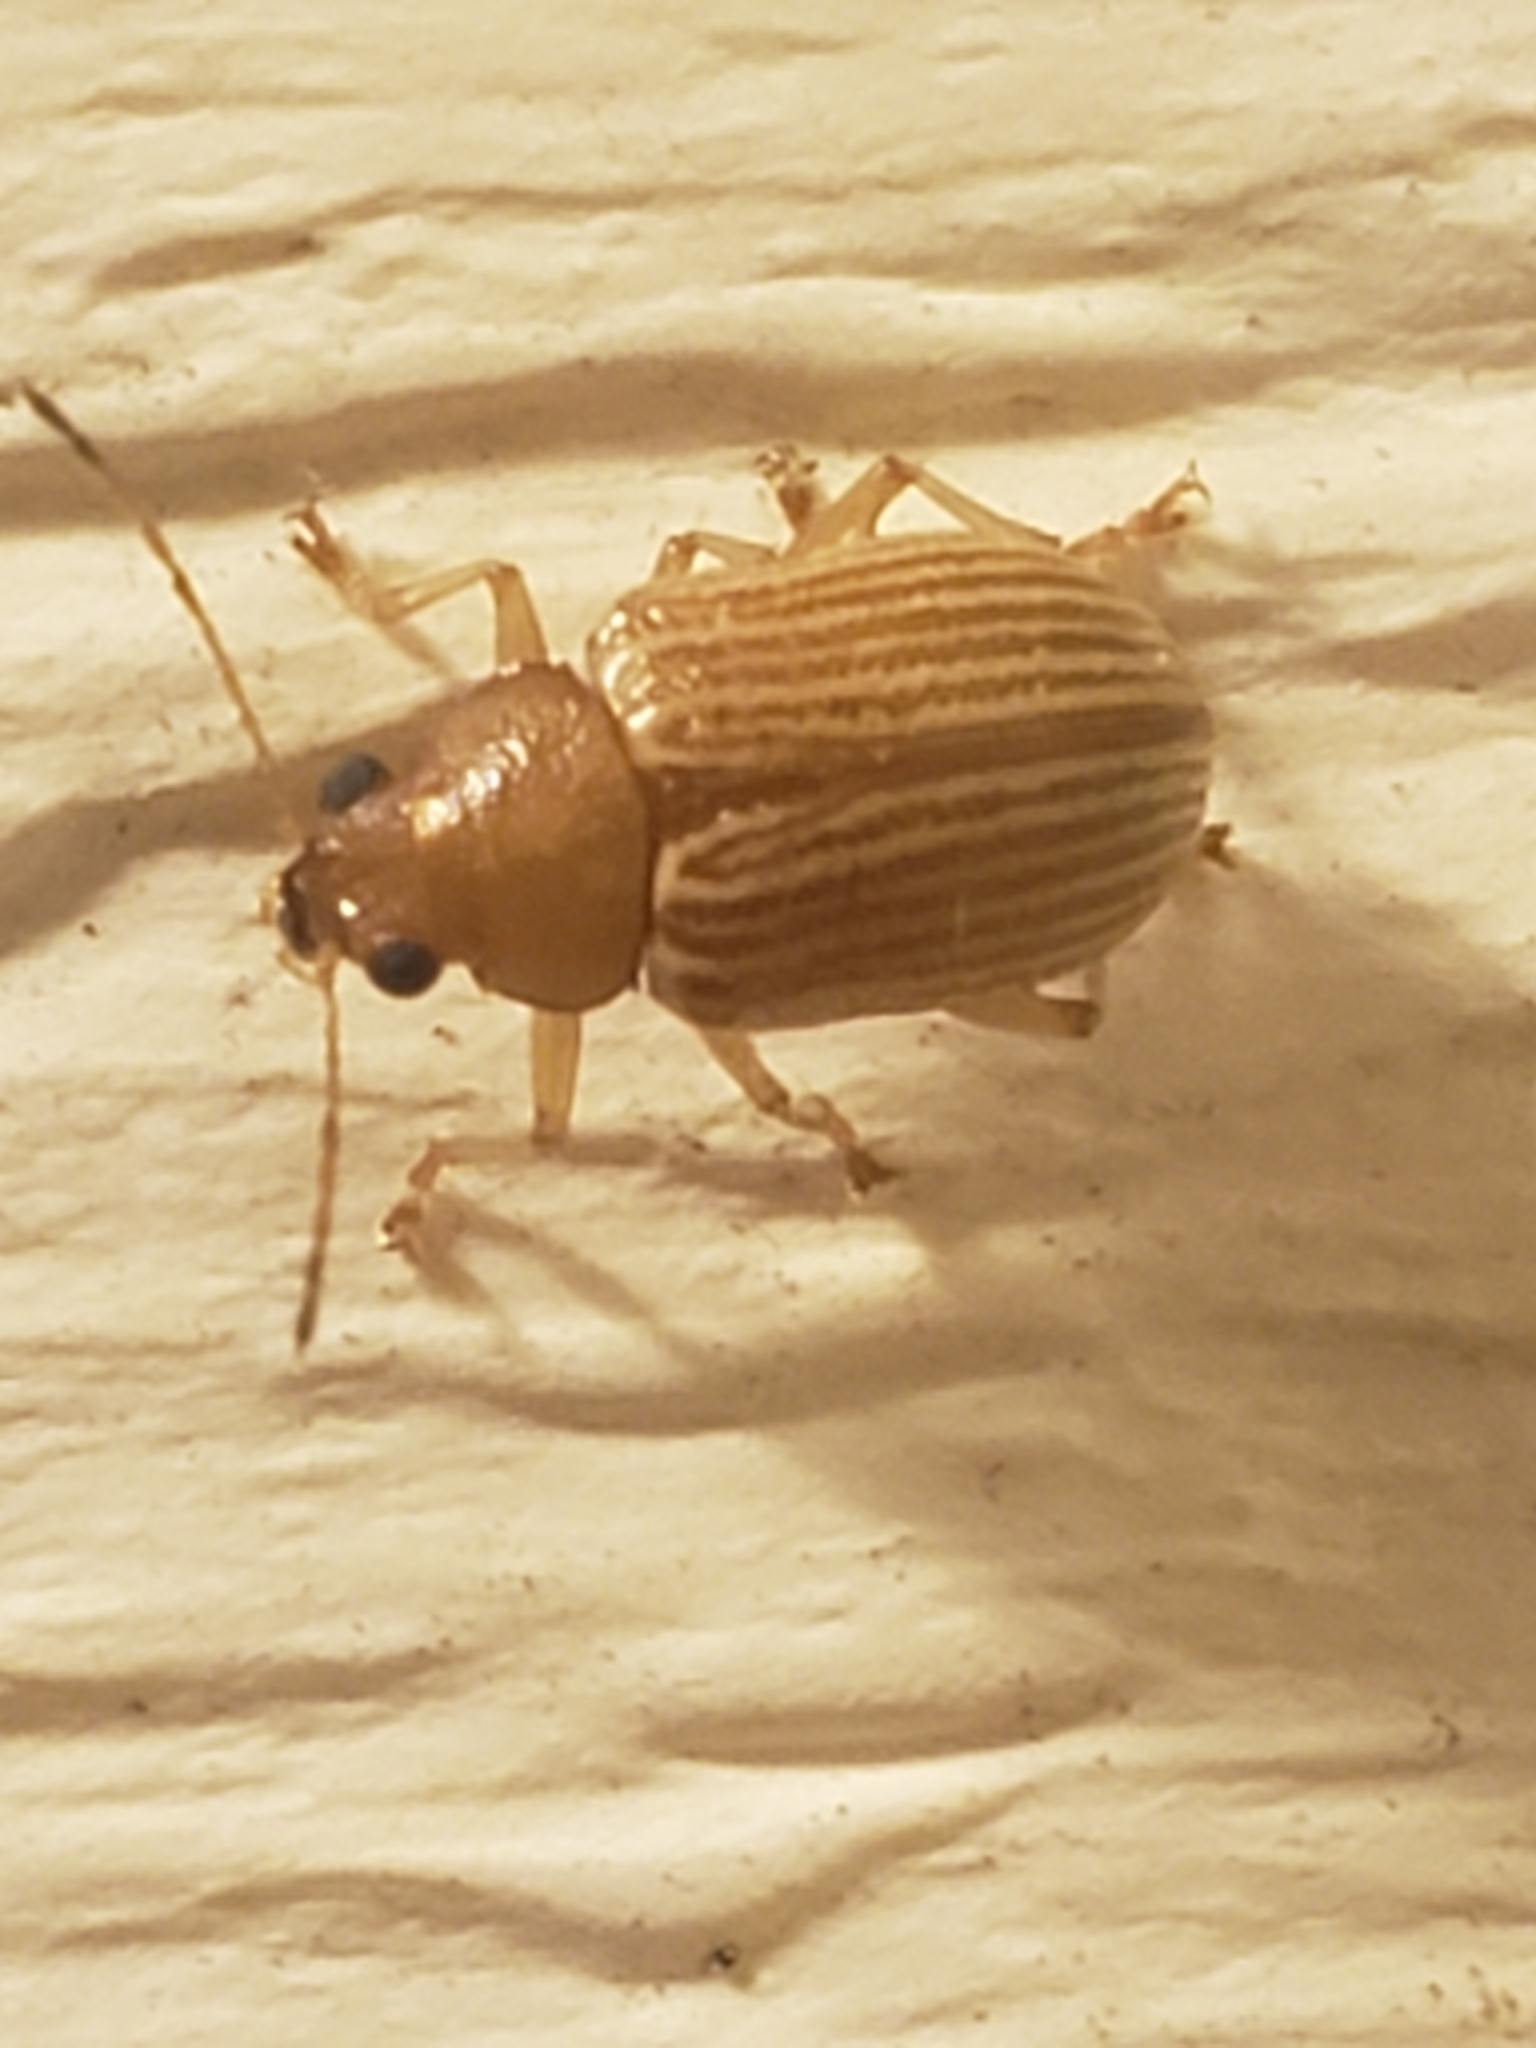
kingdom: Animalia
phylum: Arthropoda
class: Insecta
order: Coleoptera
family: Chrysomelidae
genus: Colaspis
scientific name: Colaspis brunnea
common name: Grape colaspis
